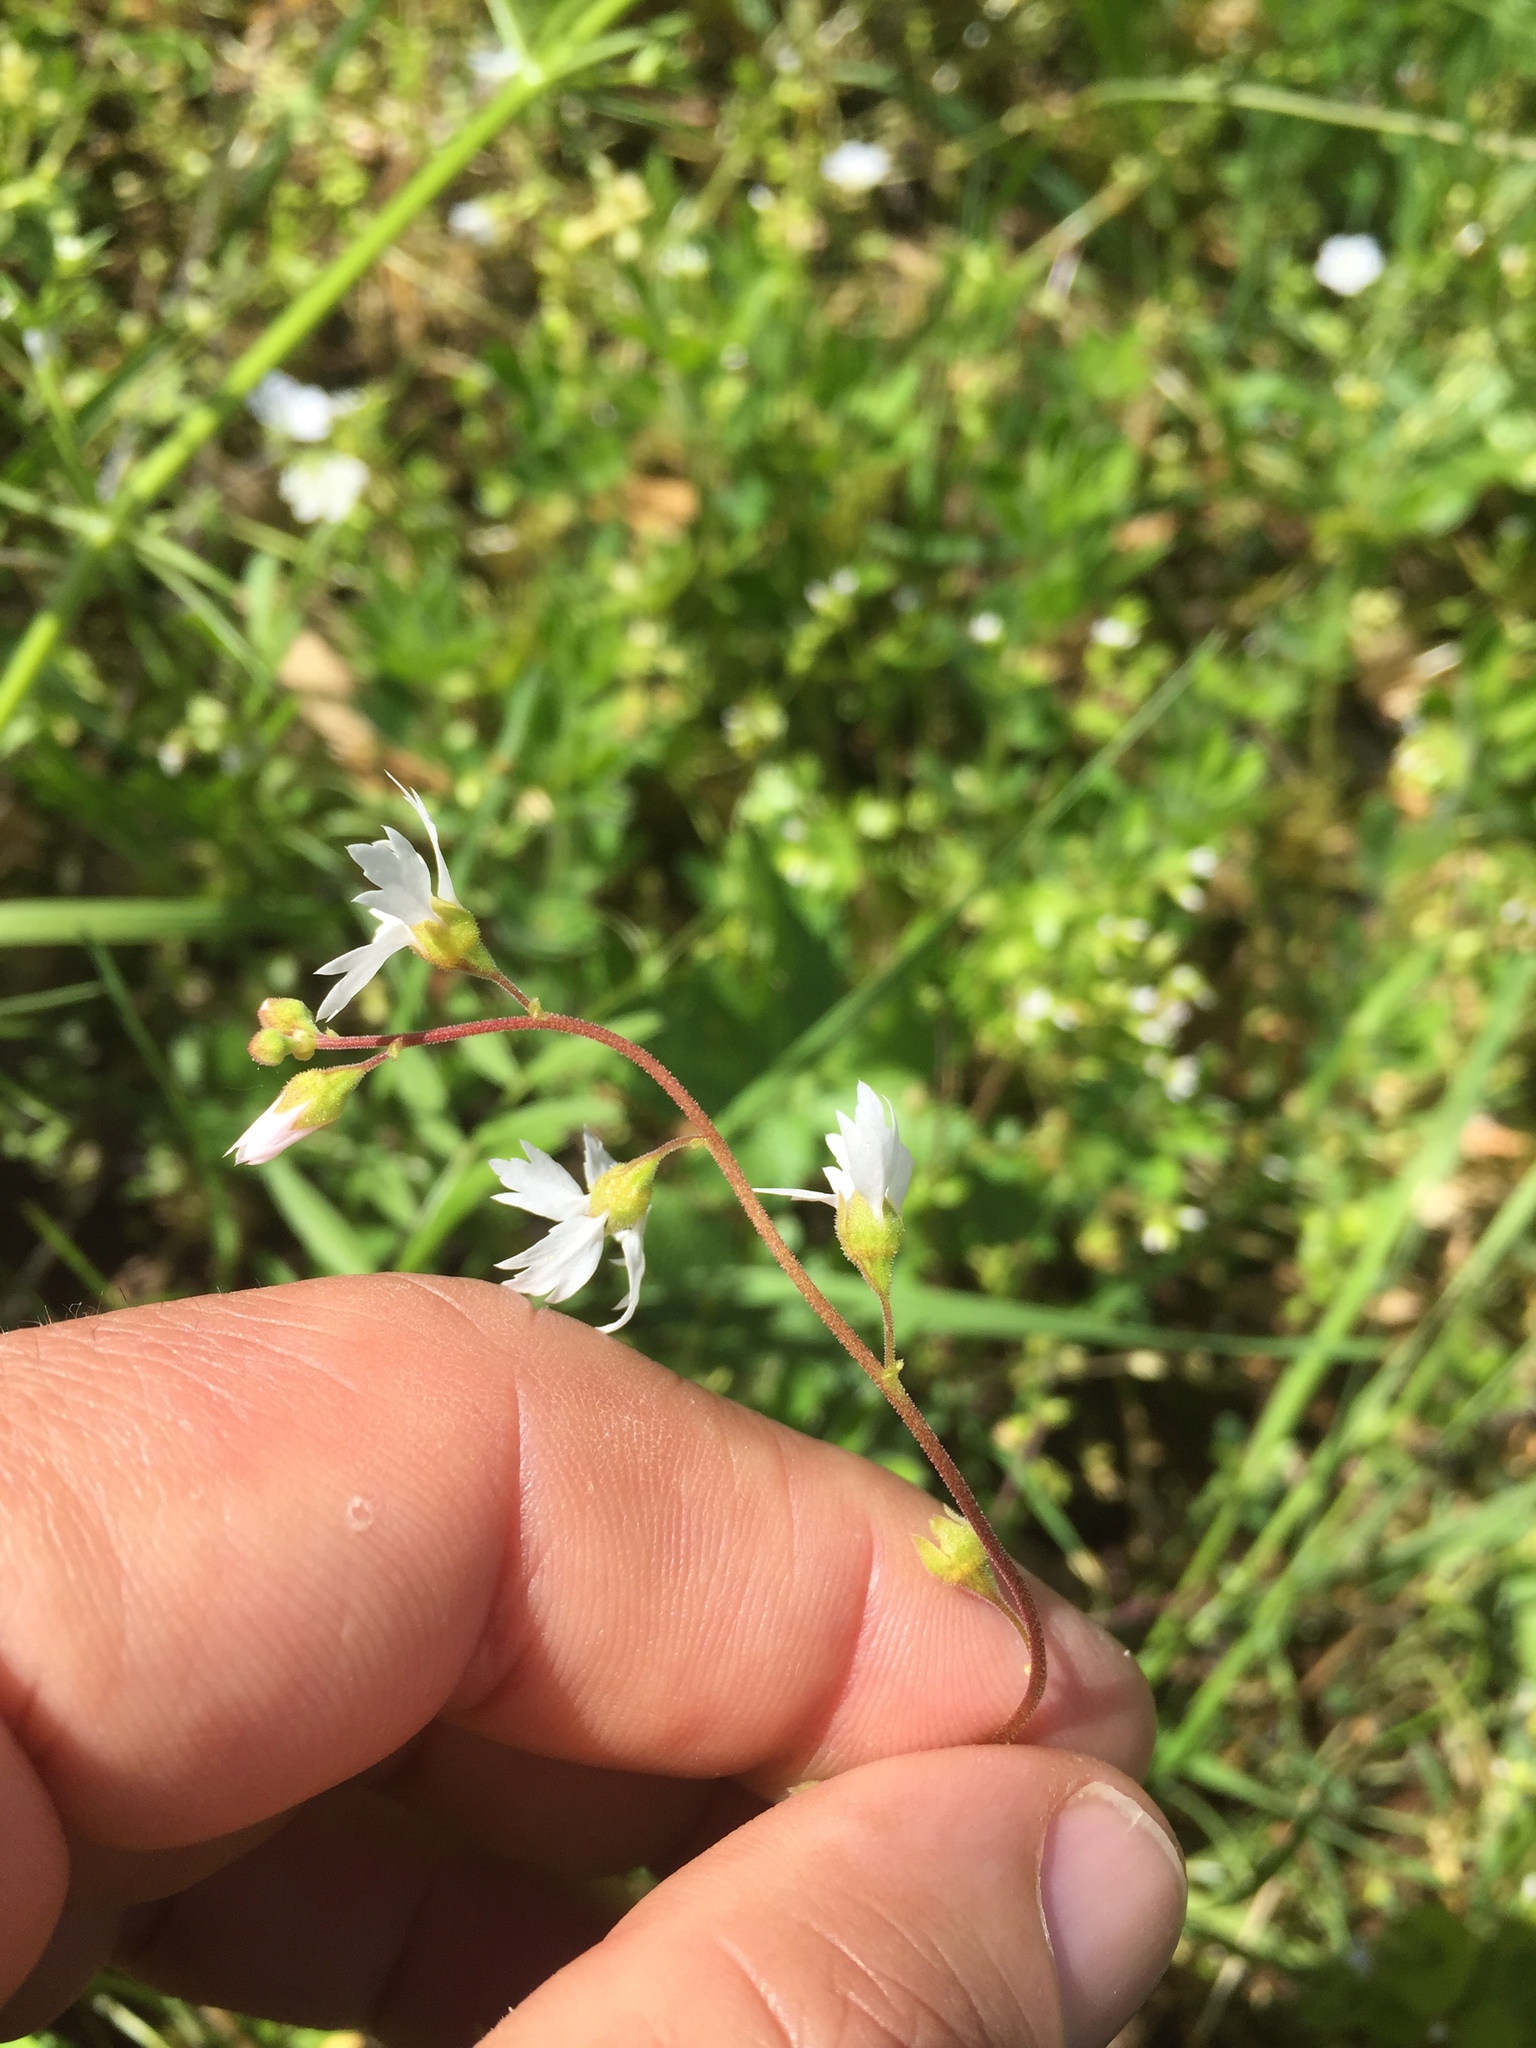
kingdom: Plantae
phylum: Tracheophyta
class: Magnoliopsida
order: Saxifragales
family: Saxifragaceae
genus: Lithophragma
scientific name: Lithophragma affine
